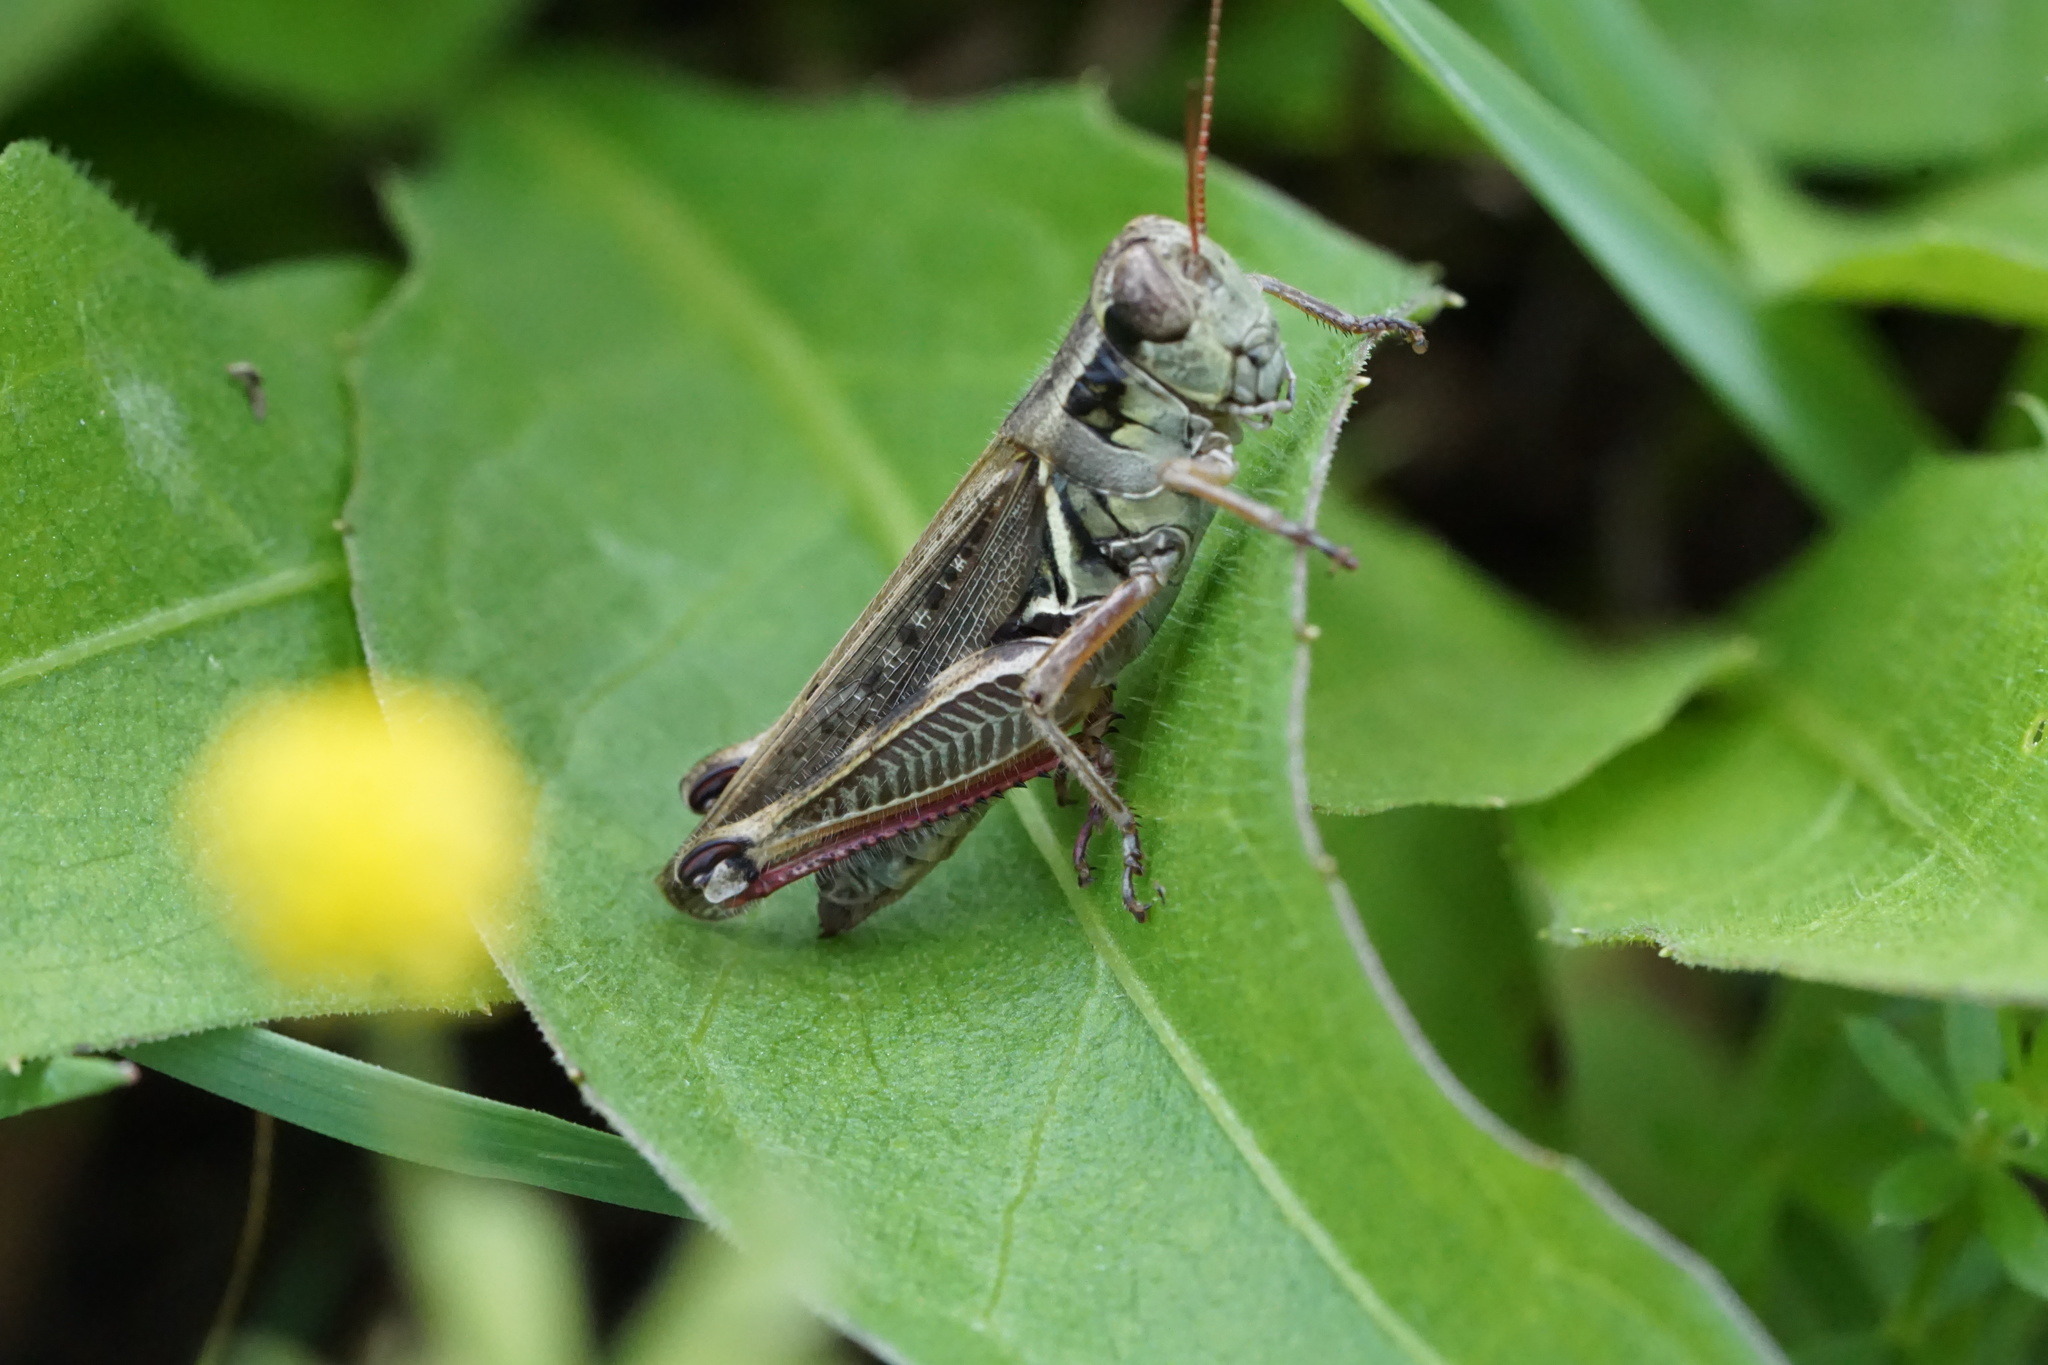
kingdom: Animalia
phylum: Arthropoda
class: Insecta
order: Orthoptera
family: Acrididae
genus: Melanoplus
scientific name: Melanoplus femurrubrum
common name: Red-legged grasshopper
